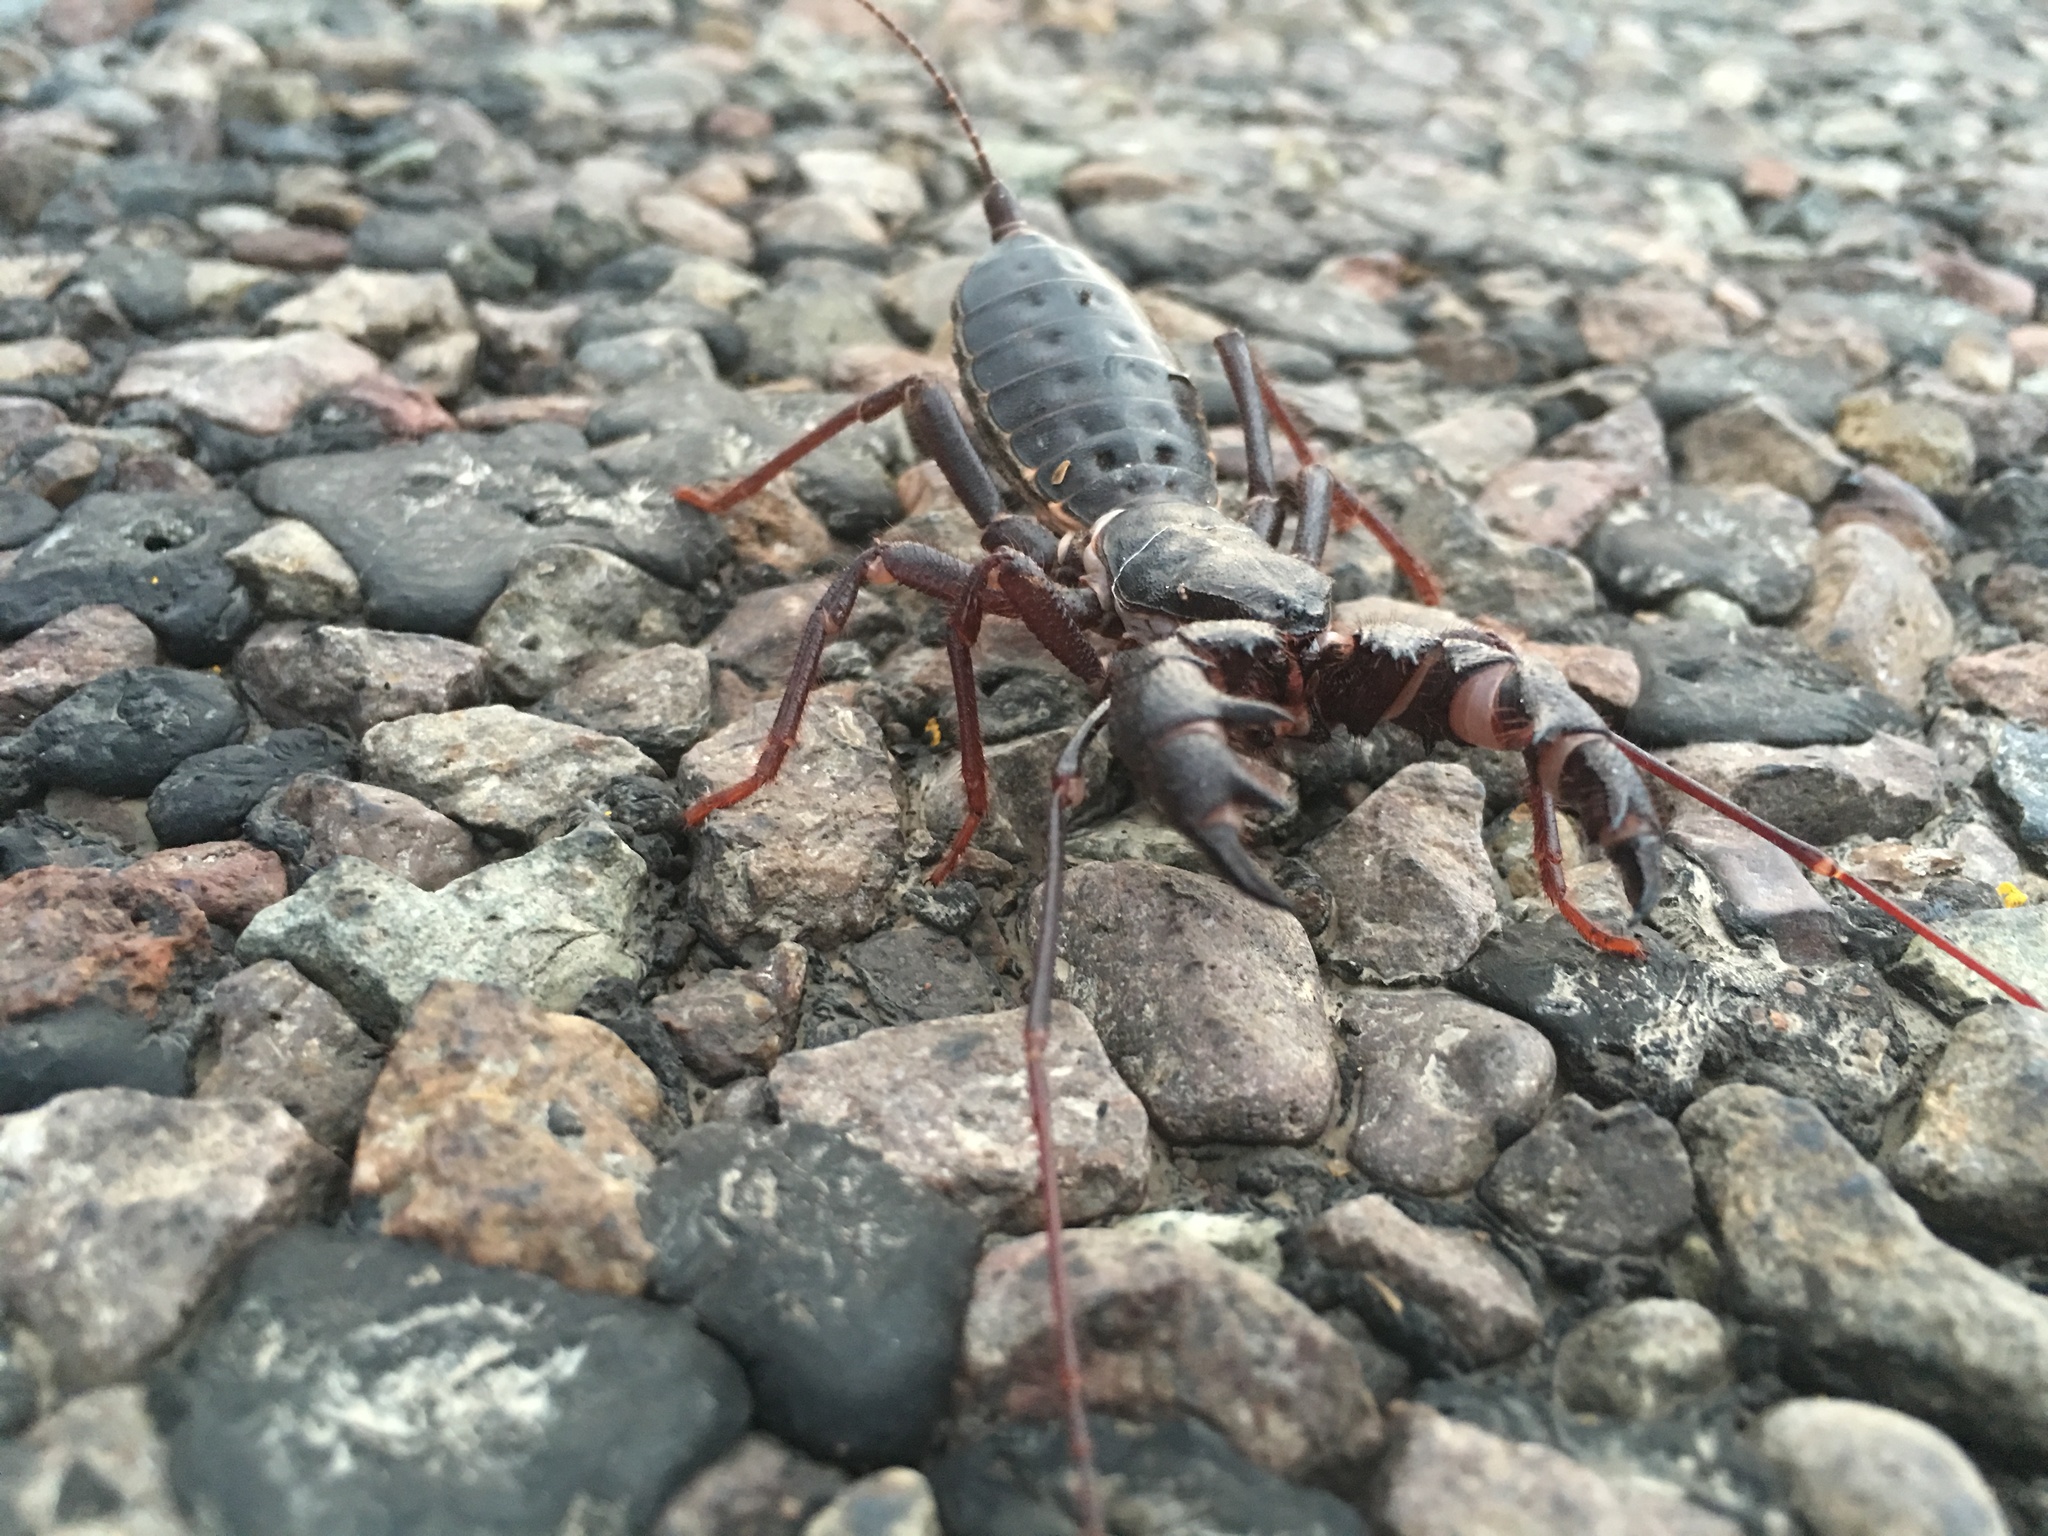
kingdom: Animalia
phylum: Arthropoda
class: Arachnida
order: Uropygi
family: Thelyphonidae
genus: Mastigoproctus
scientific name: Mastigoproctus giganteus
